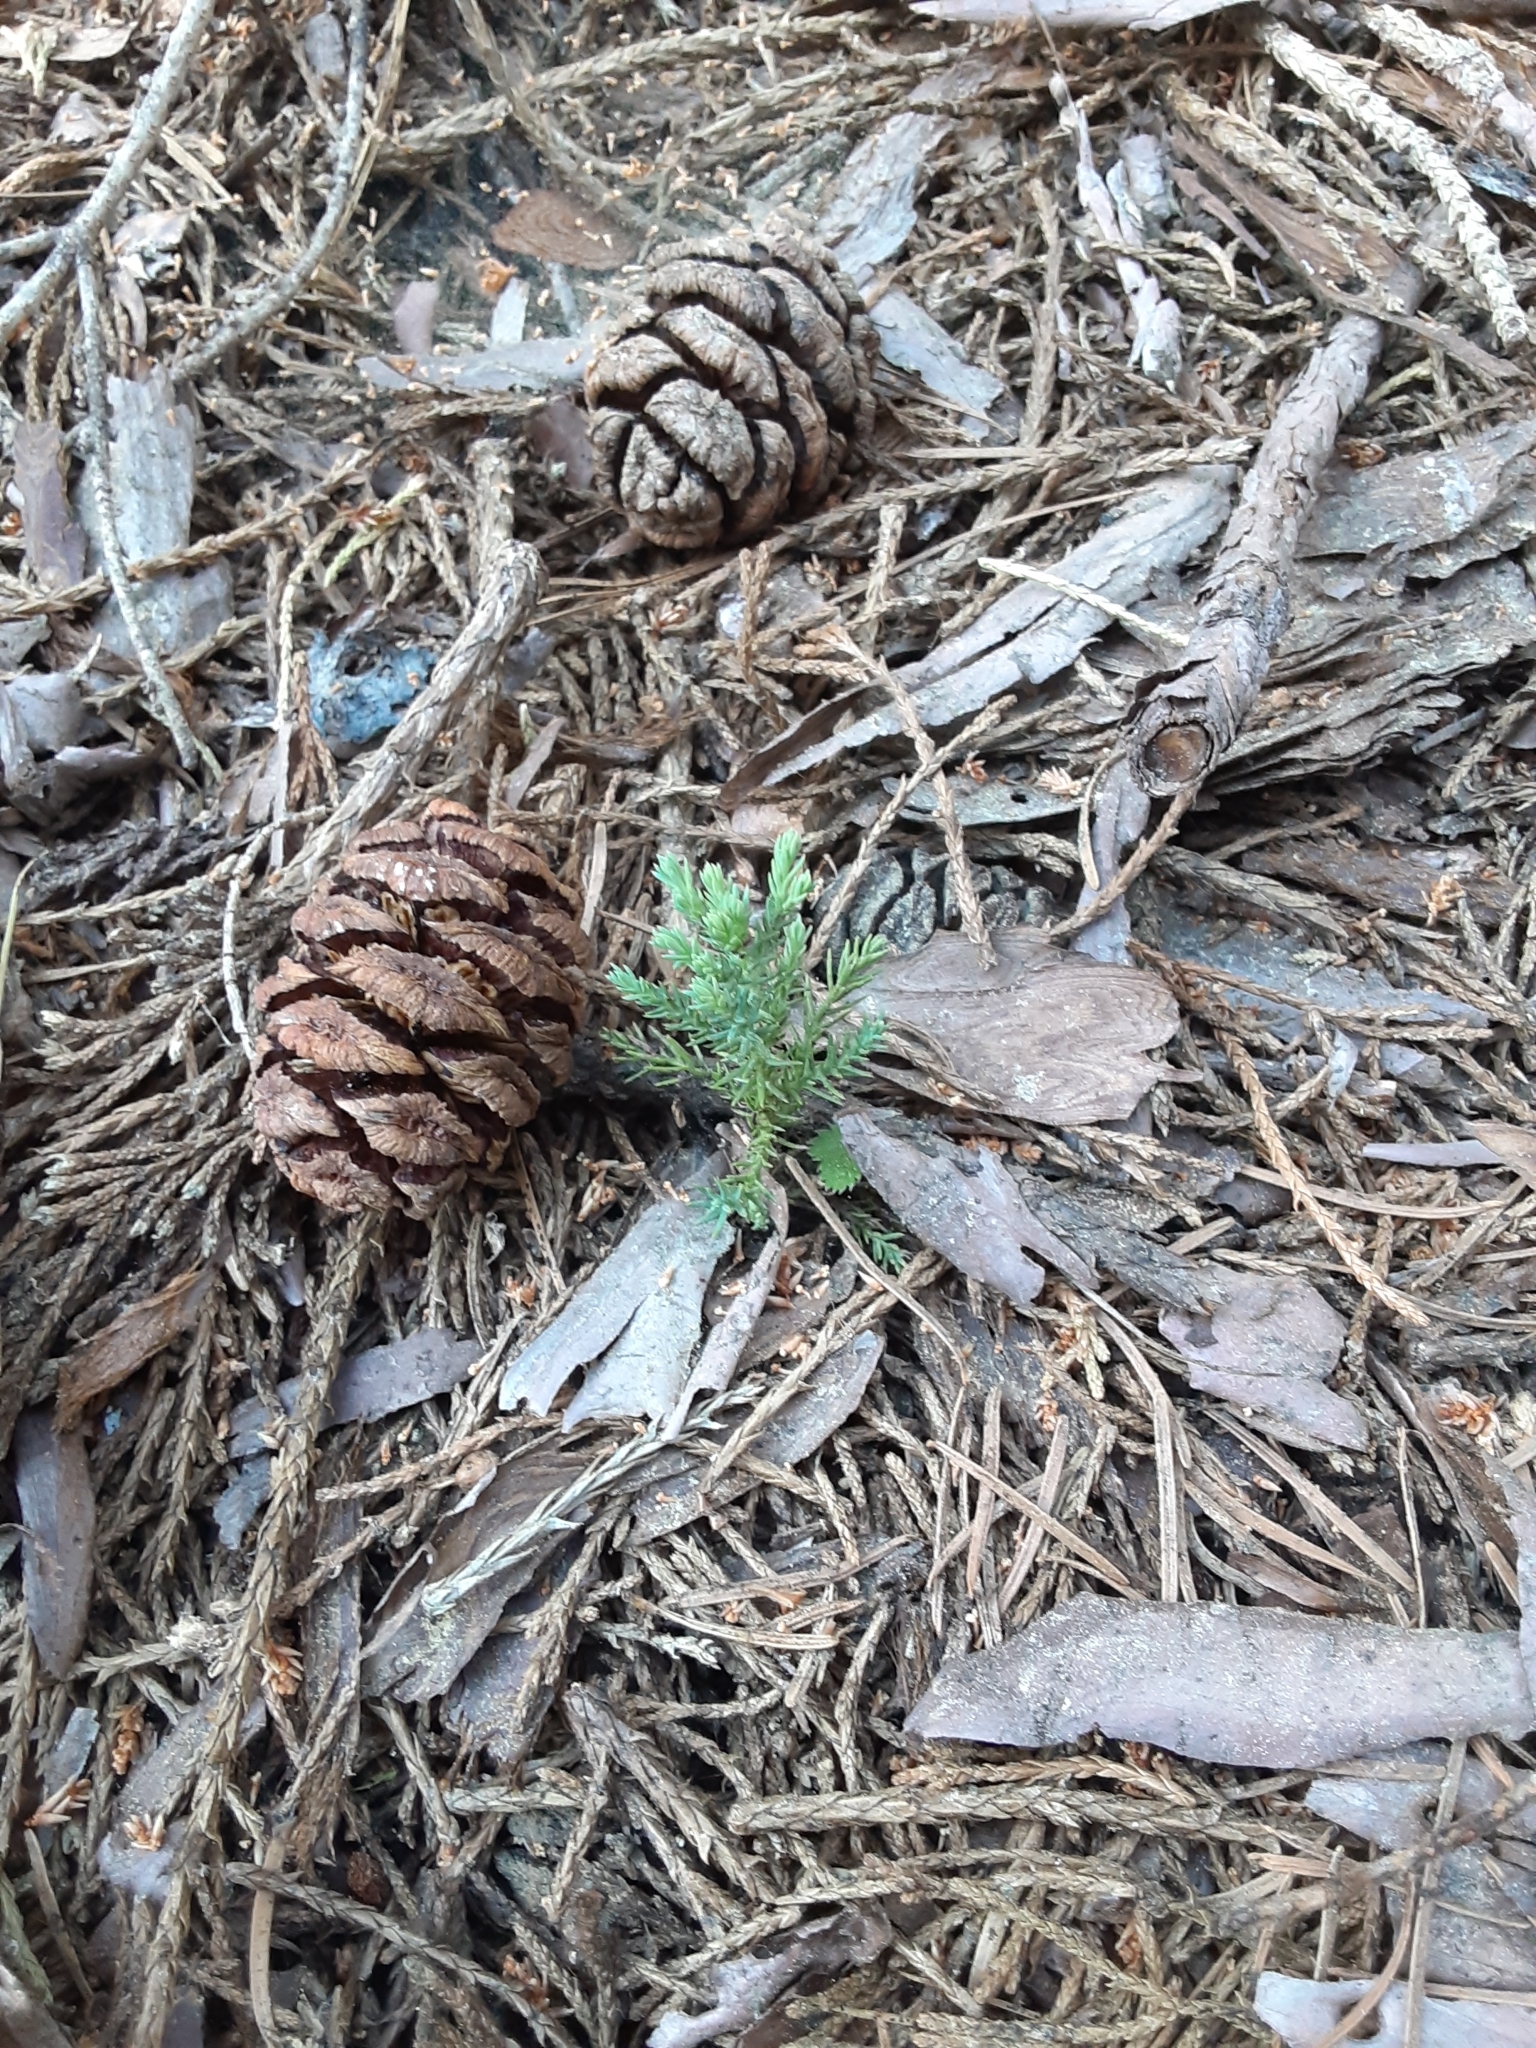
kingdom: Plantae
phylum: Tracheophyta
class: Pinopsida
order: Pinales
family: Cupressaceae
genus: Sequoiadendron
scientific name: Sequoiadendron giganteum
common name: Wellingtonia
